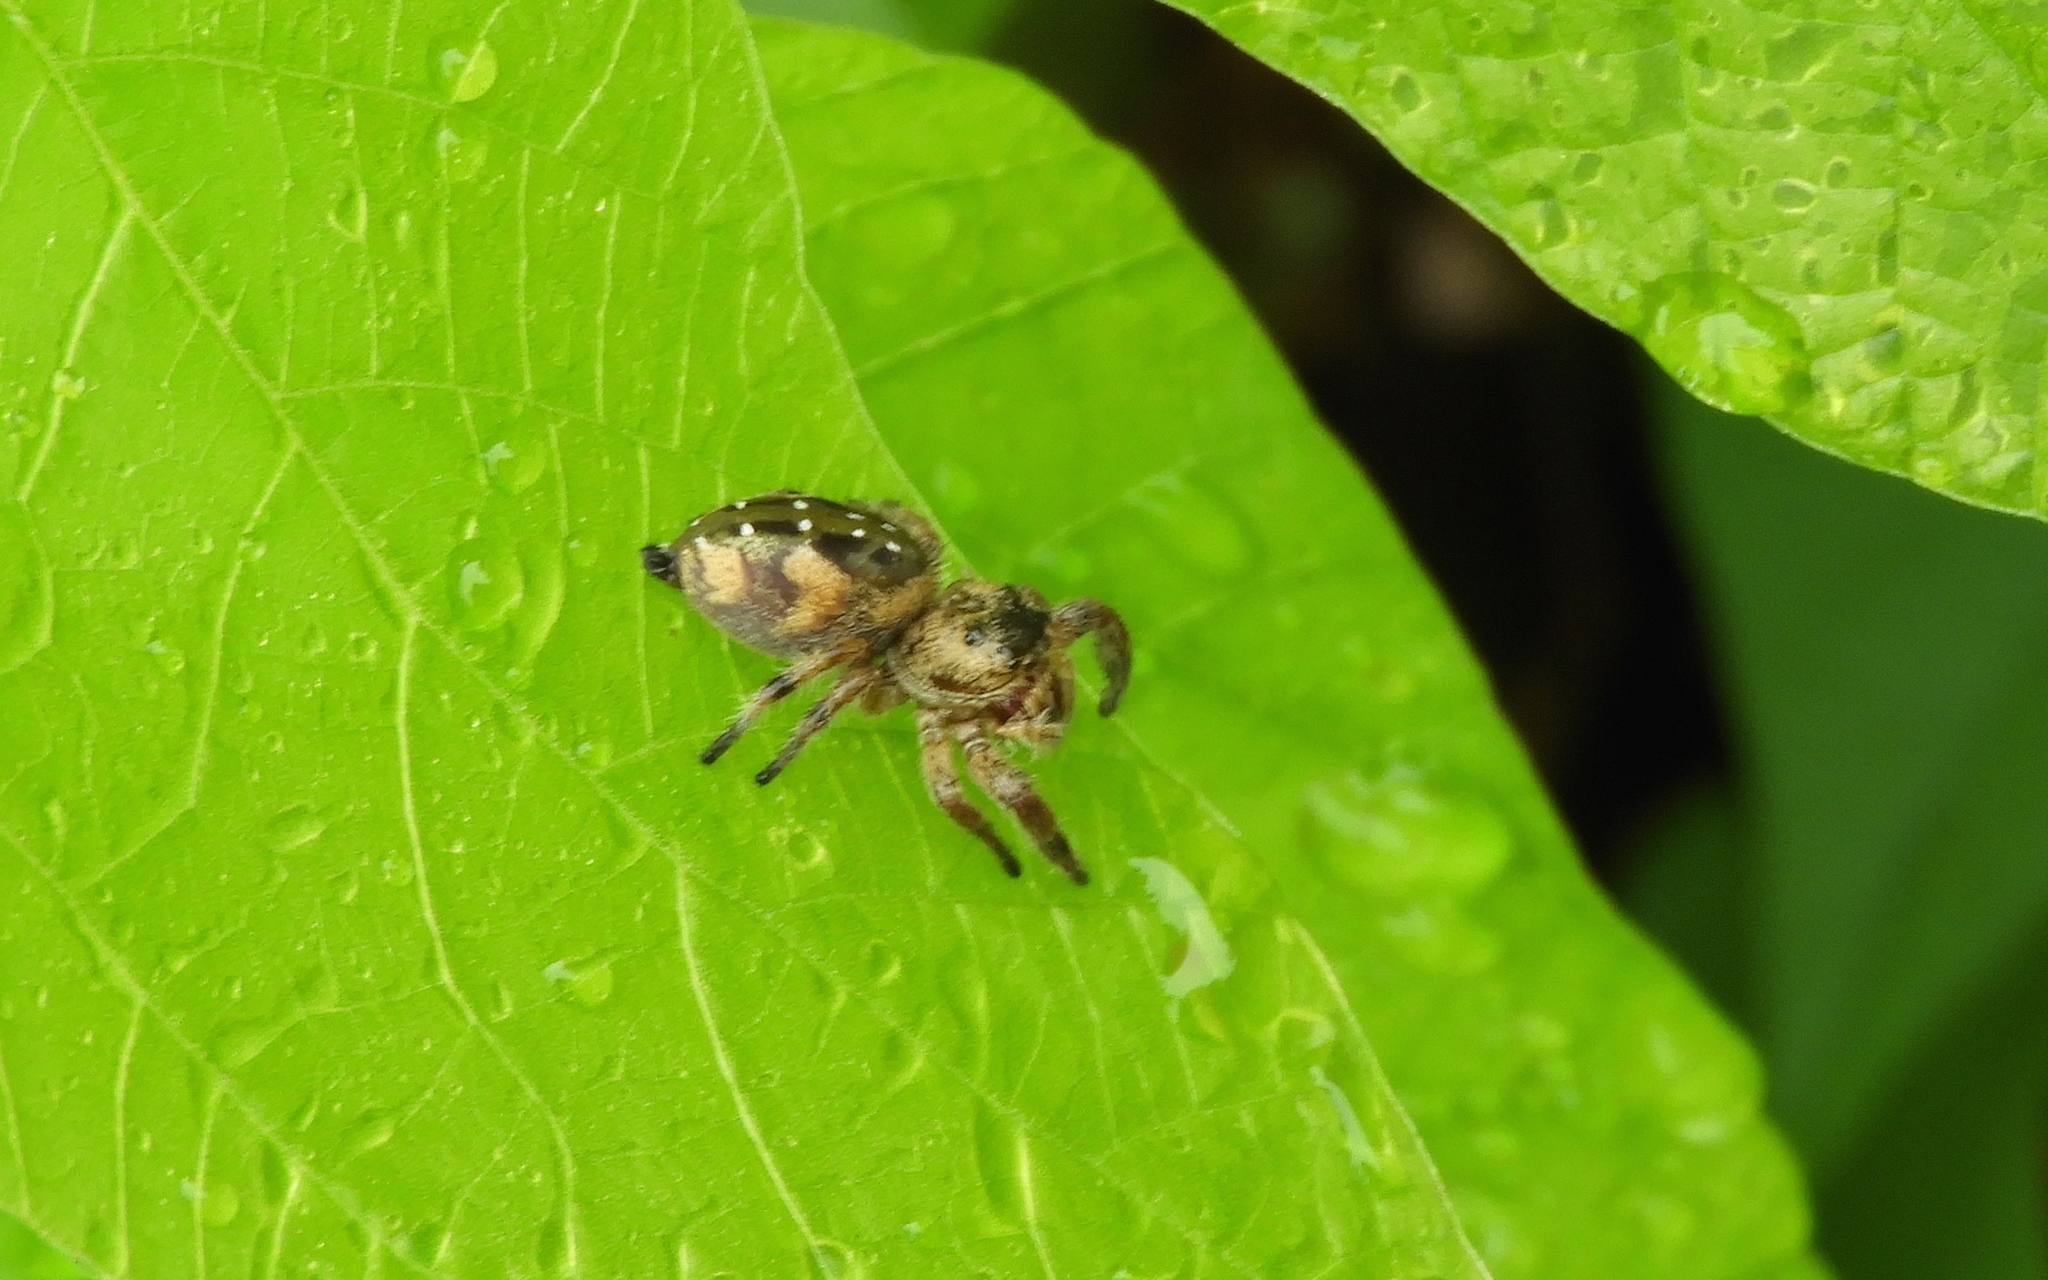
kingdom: Animalia
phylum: Arthropoda
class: Arachnida
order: Araneae
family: Salticidae
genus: Paraphidippus
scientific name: Paraphidippus aurantius
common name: Jumping spiders
